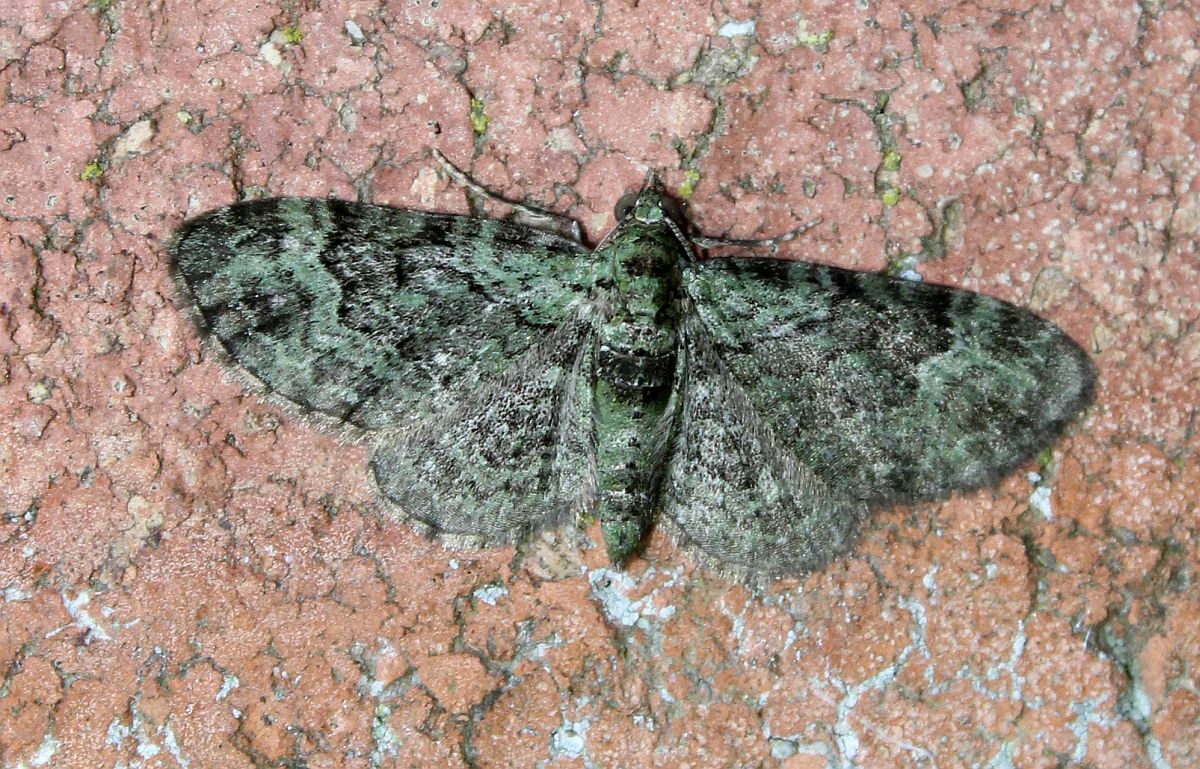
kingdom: Animalia
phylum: Arthropoda
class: Insecta
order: Lepidoptera
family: Geometridae
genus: Pasiphila
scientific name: Pasiphila rectangulata
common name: Green pug
